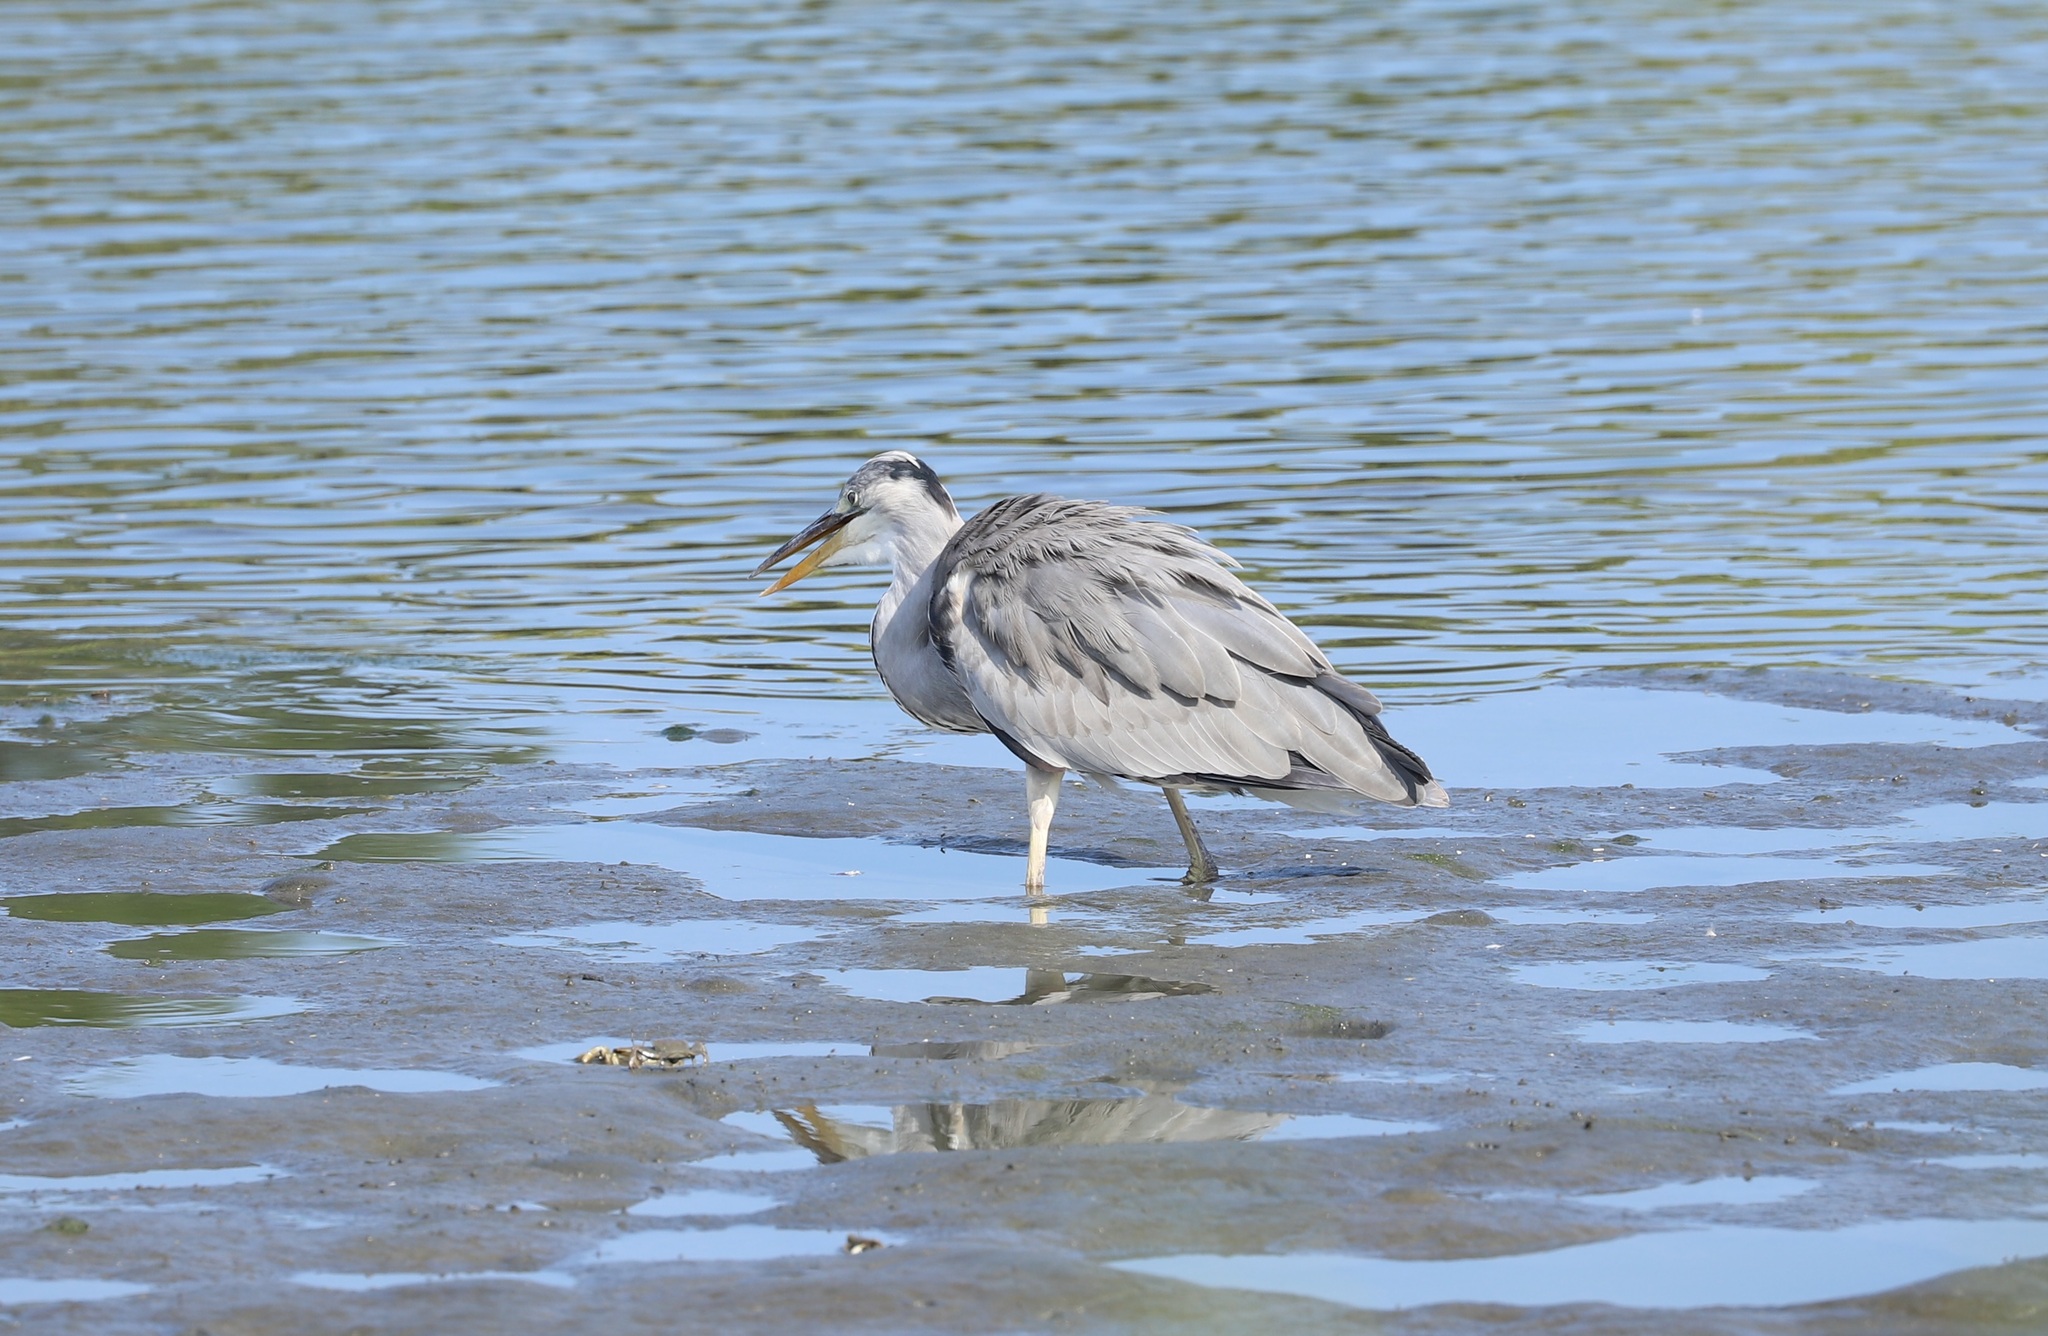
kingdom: Animalia
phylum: Chordata
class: Aves
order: Pelecaniformes
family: Ardeidae
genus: Ardea
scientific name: Ardea cinerea
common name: Grey heron
